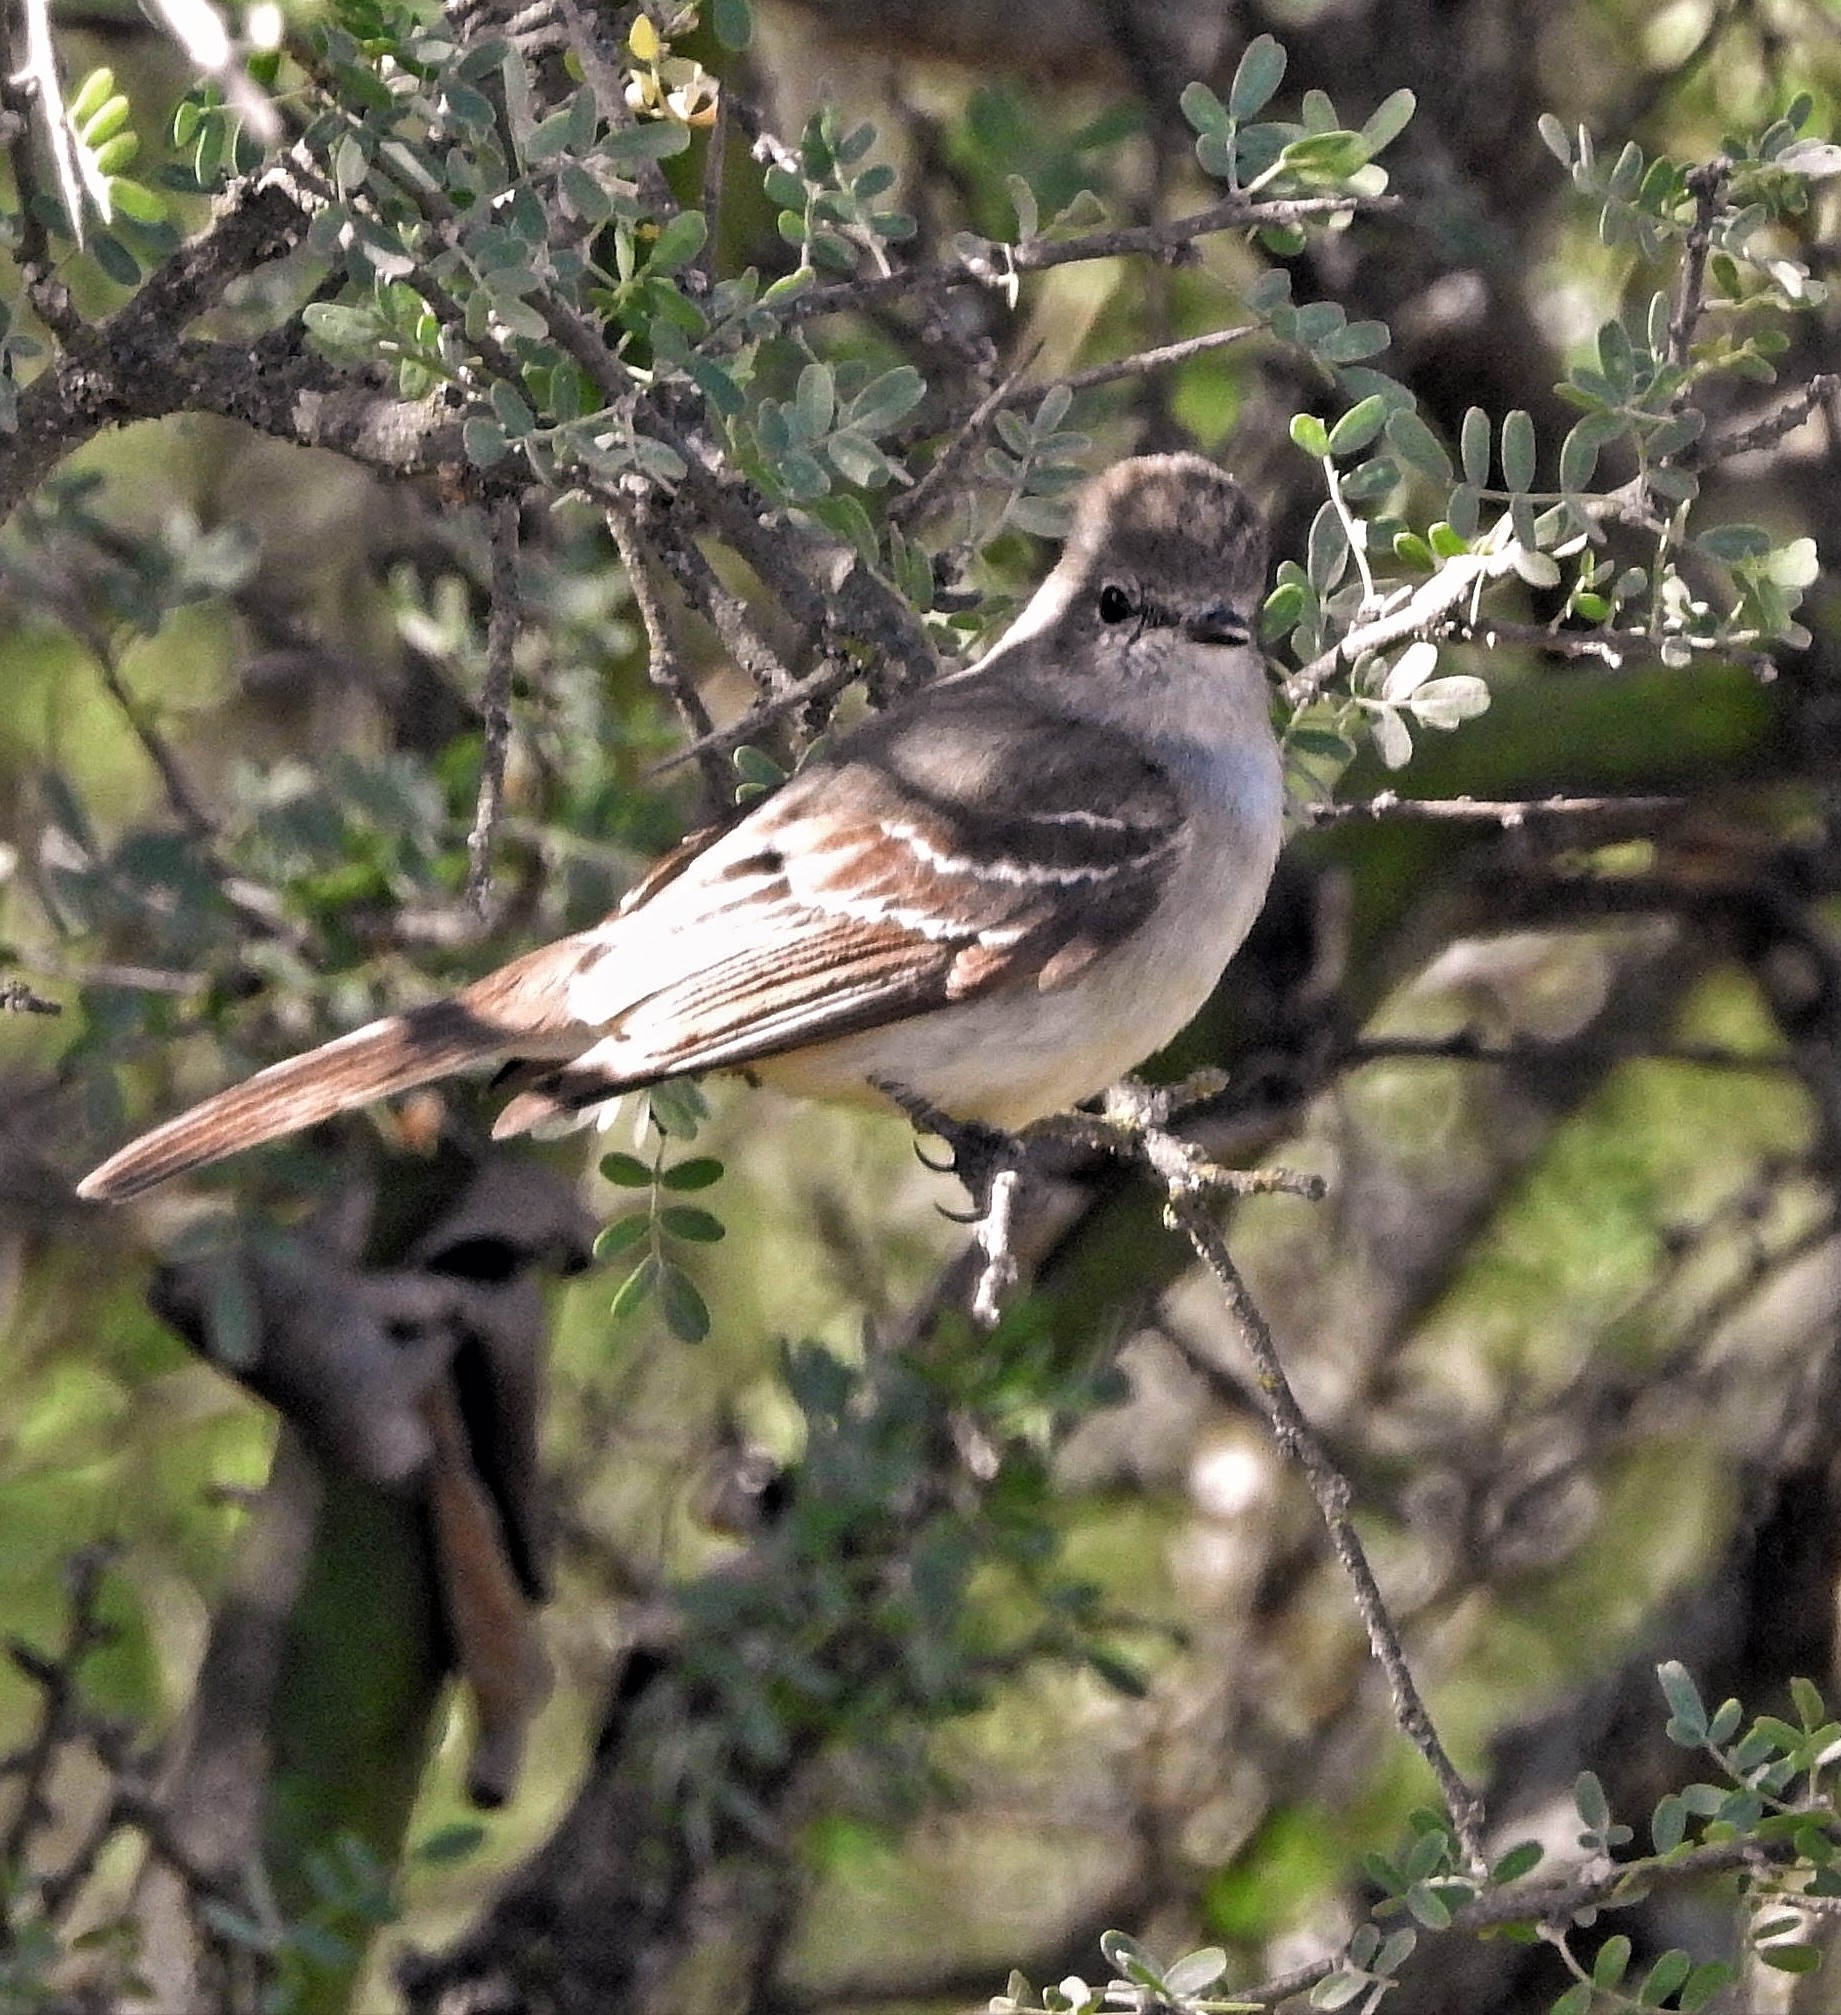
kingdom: Animalia
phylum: Chordata
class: Aves
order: Passeriformes
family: Tyrannidae
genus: Sublegatus
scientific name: Sublegatus modestus
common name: Southern scrub flycatcher
